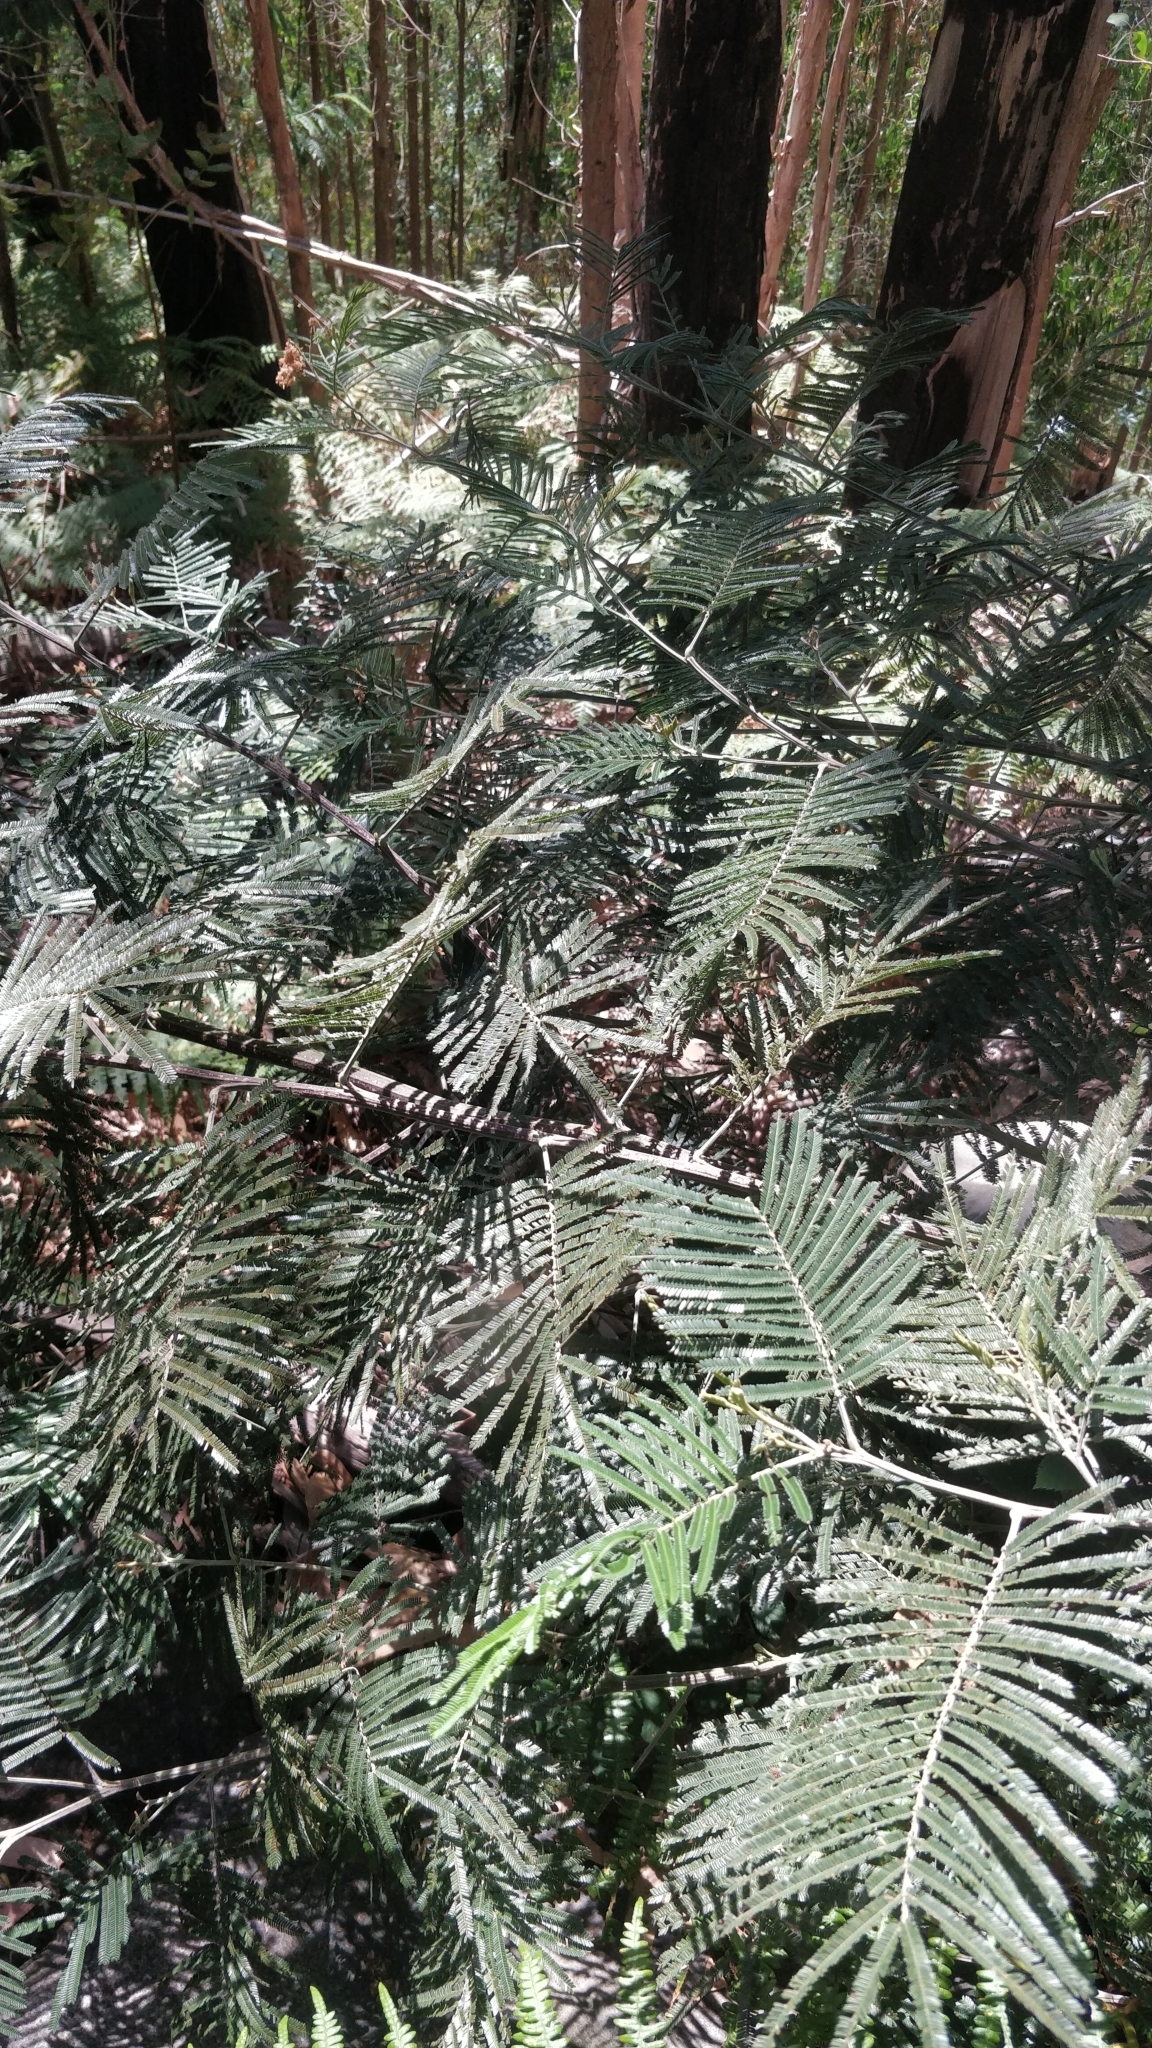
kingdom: Plantae
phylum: Tracheophyta
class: Magnoliopsida
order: Fabales
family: Fabaceae
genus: Acacia
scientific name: Acacia mearnsii
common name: Black wattle
